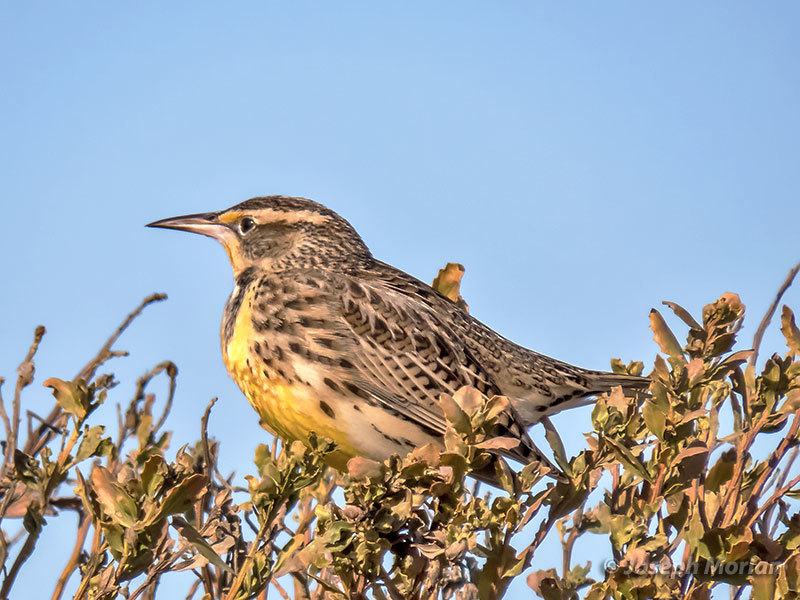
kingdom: Animalia
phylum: Chordata
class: Aves
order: Passeriformes
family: Icteridae
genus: Sturnella
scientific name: Sturnella neglecta
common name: Western meadowlark
